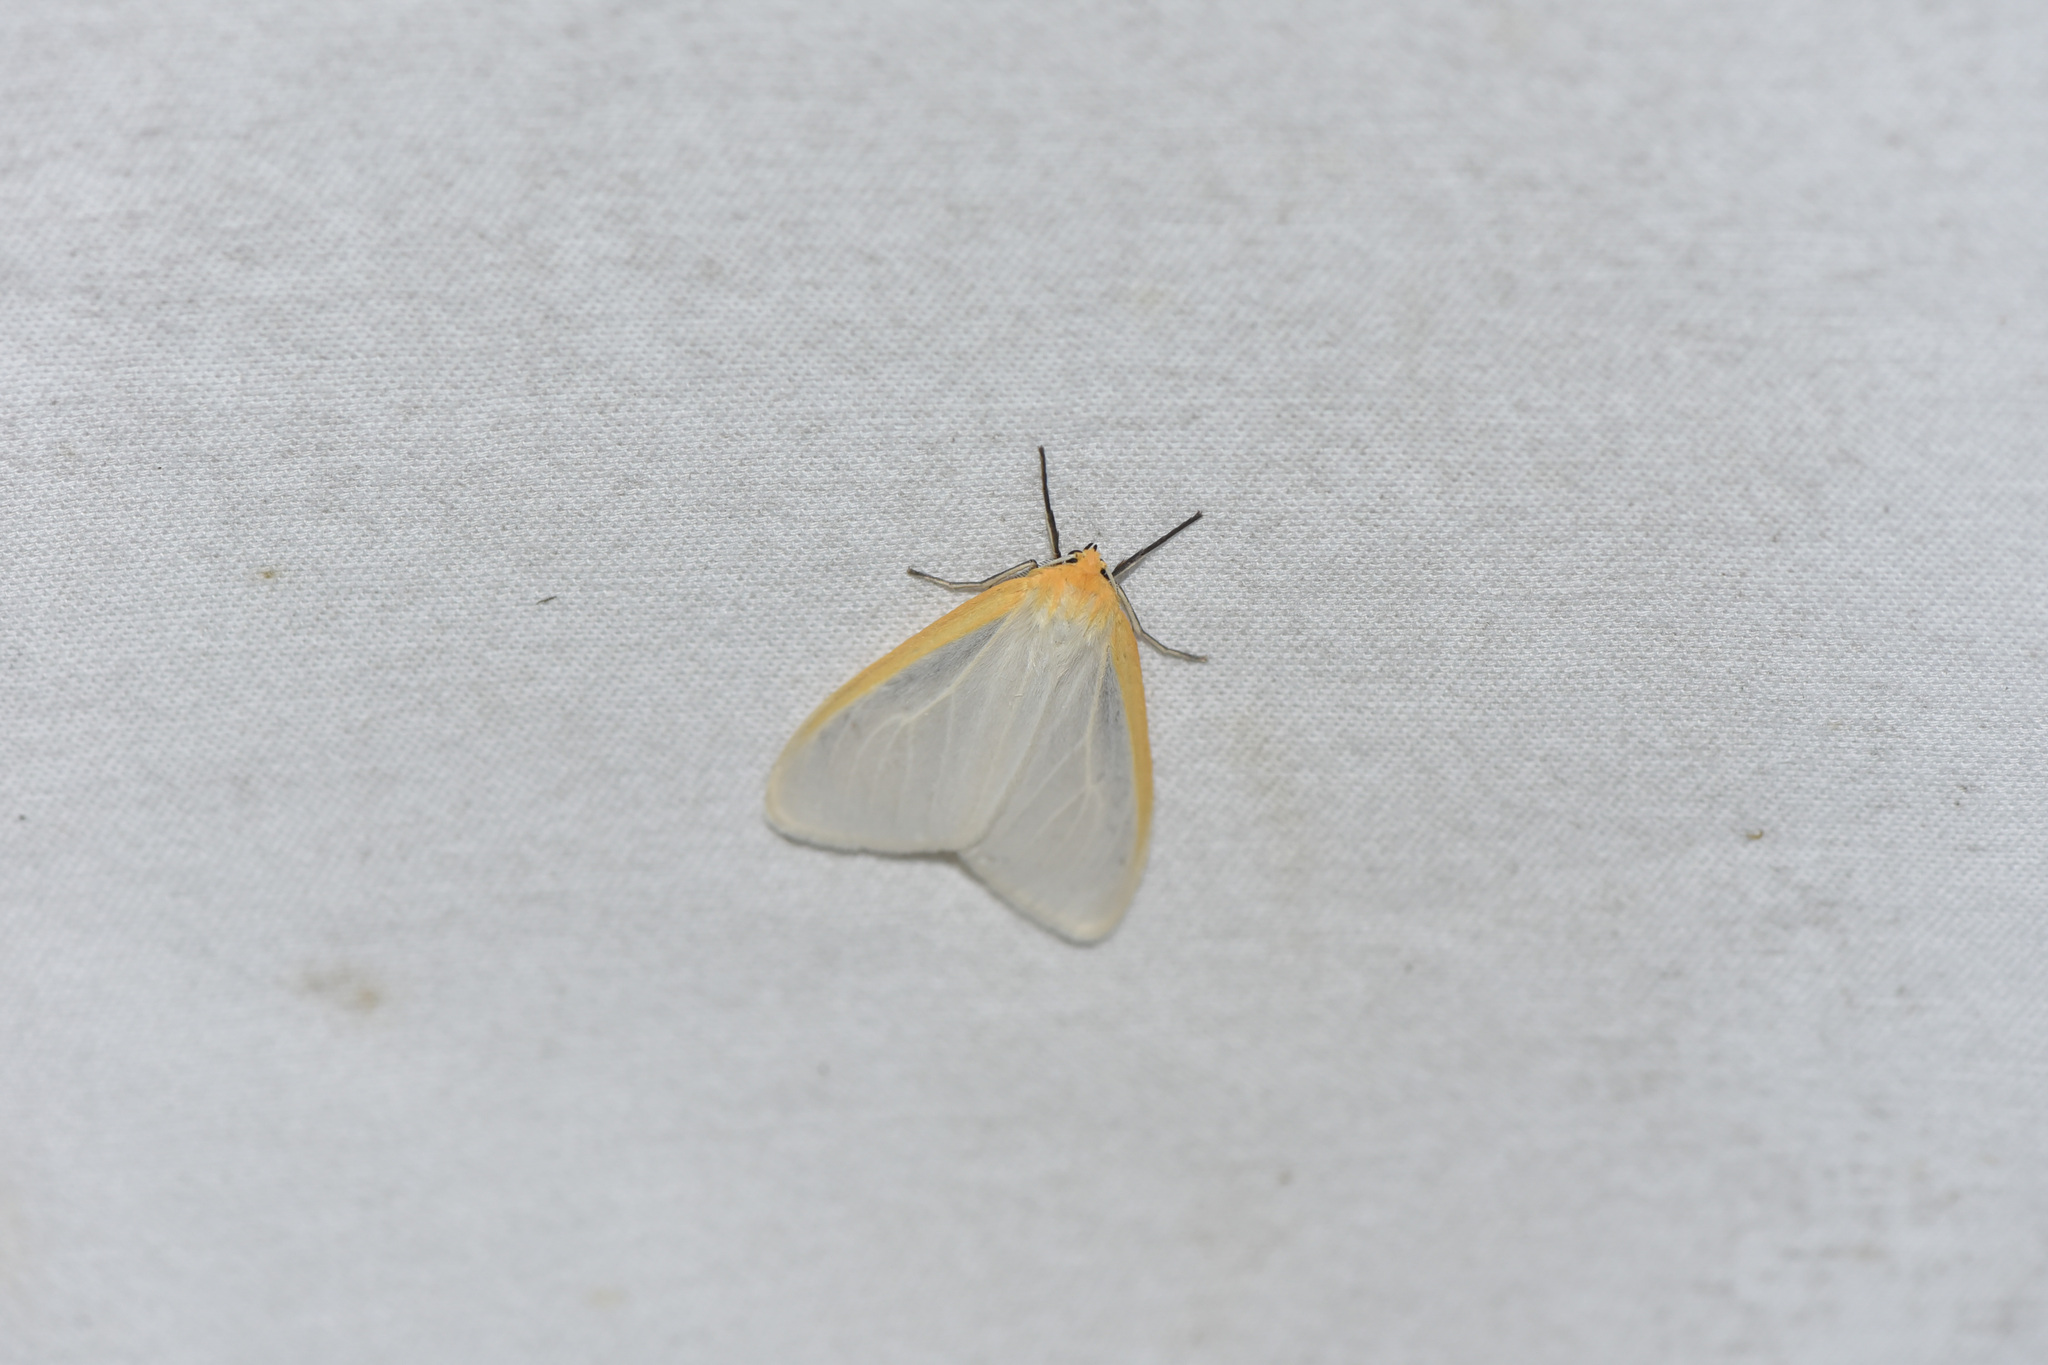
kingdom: Animalia
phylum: Arthropoda
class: Insecta
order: Lepidoptera
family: Erebidae
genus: Cycnia
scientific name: Cycnia tenera
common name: Delicate cycnia moth
